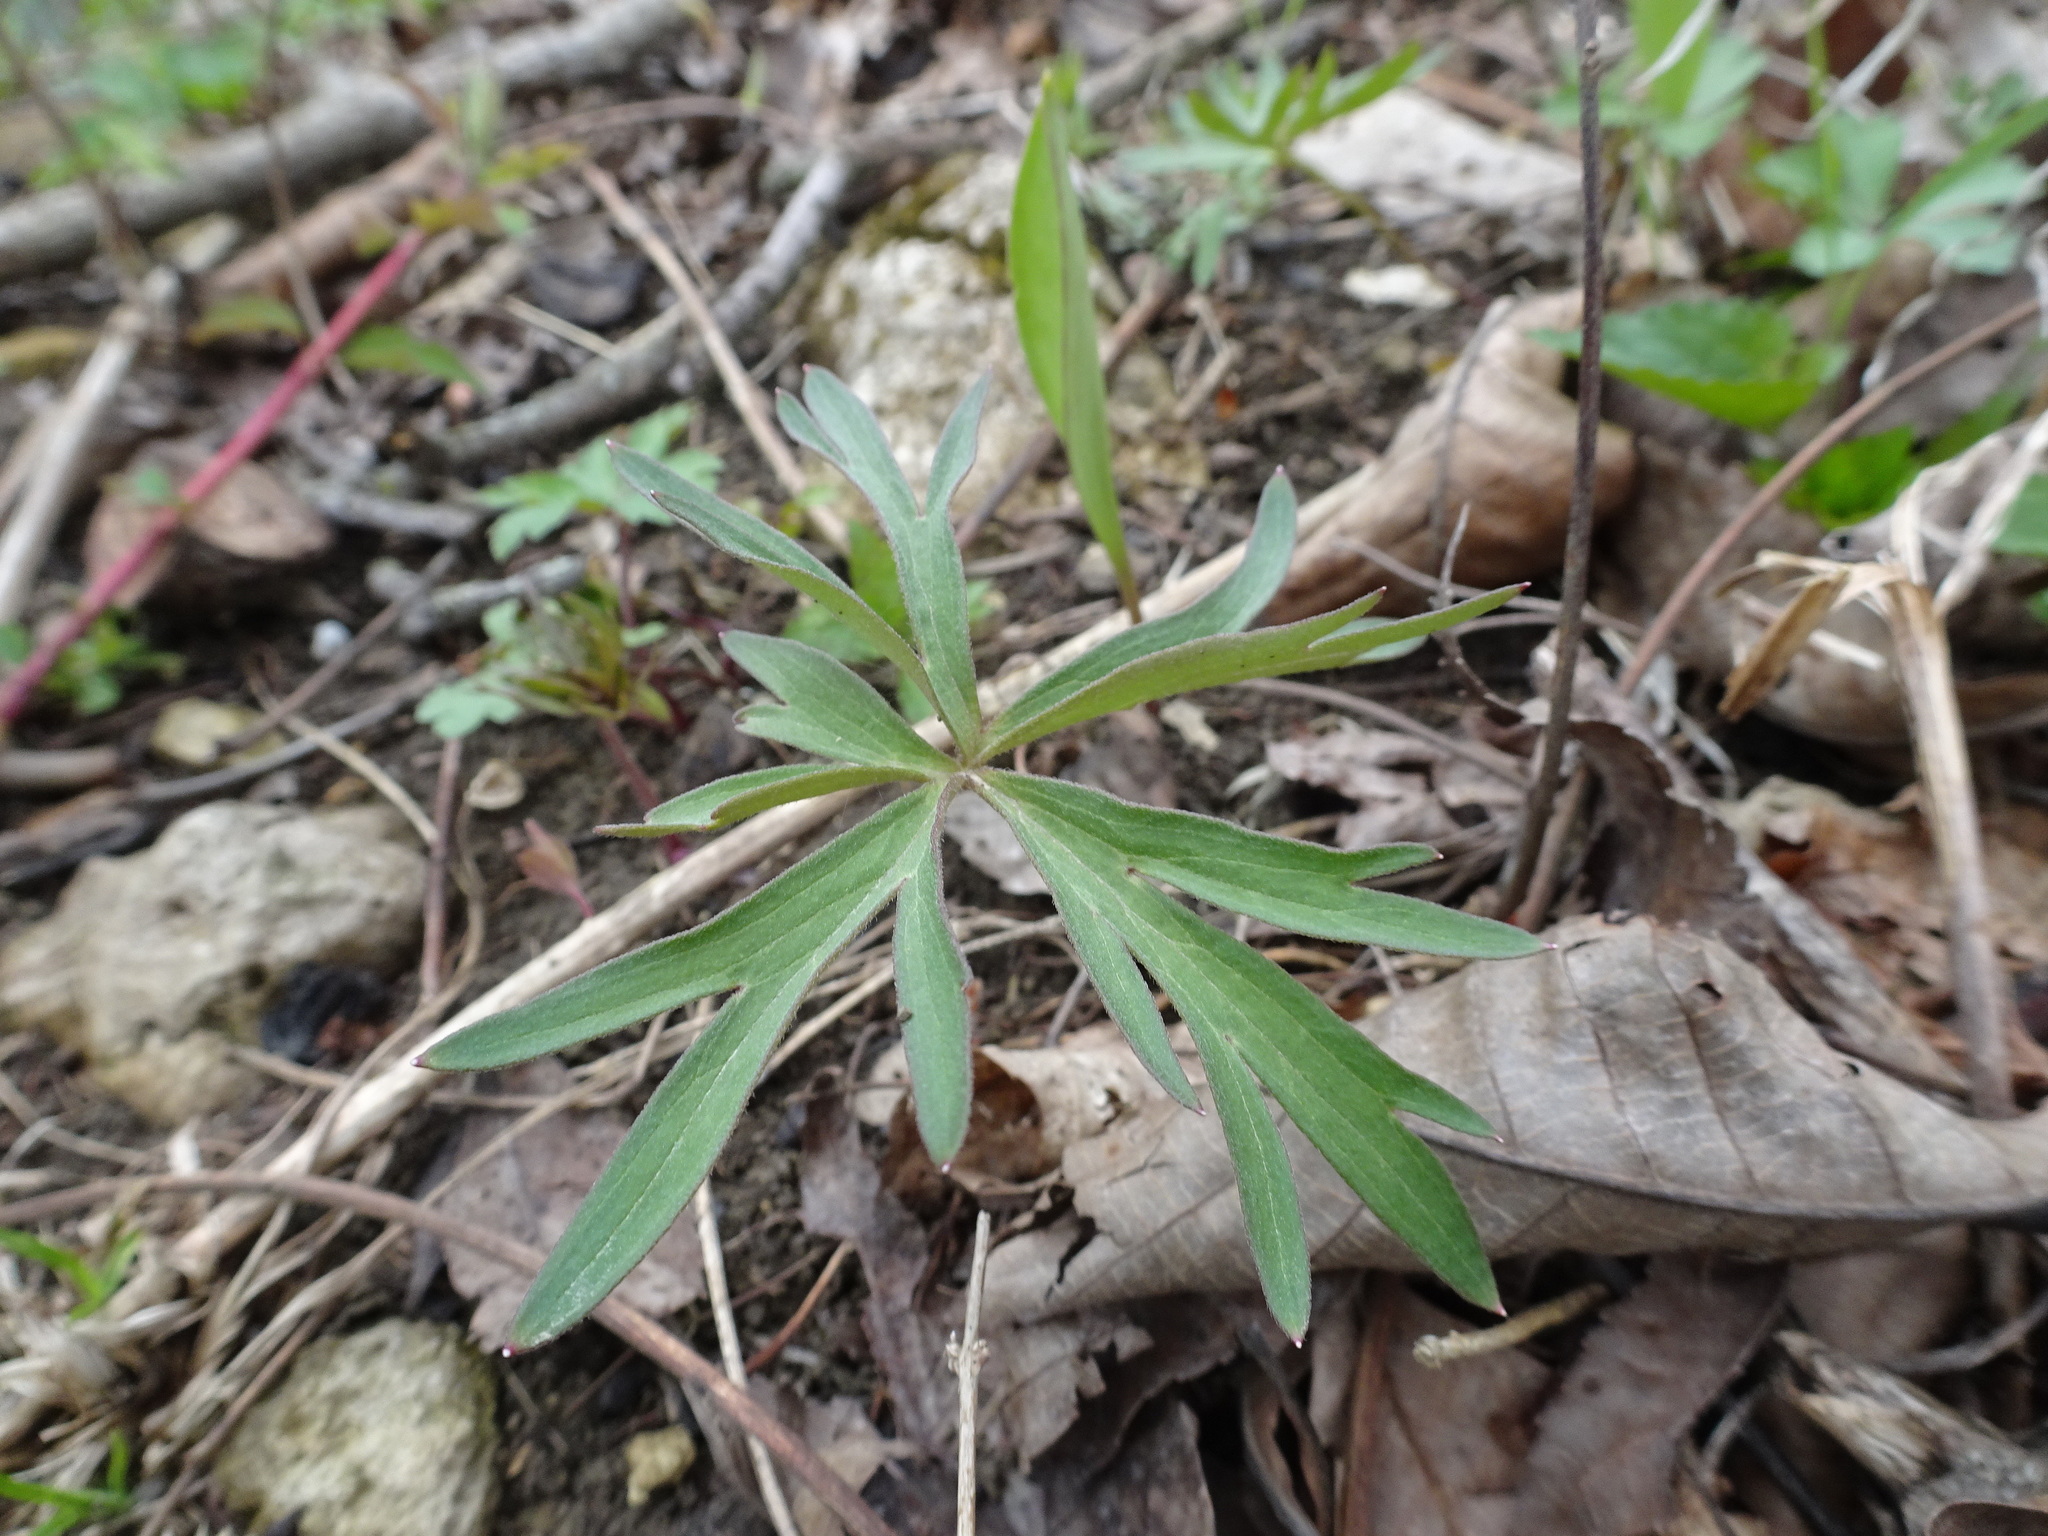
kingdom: Plantae
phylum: Tracheophyta
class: Magnoliopsida
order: Ranunculales
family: Ranunculaceae
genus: Delphinium
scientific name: Delphinium tricorne
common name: Dwarf larkspur
